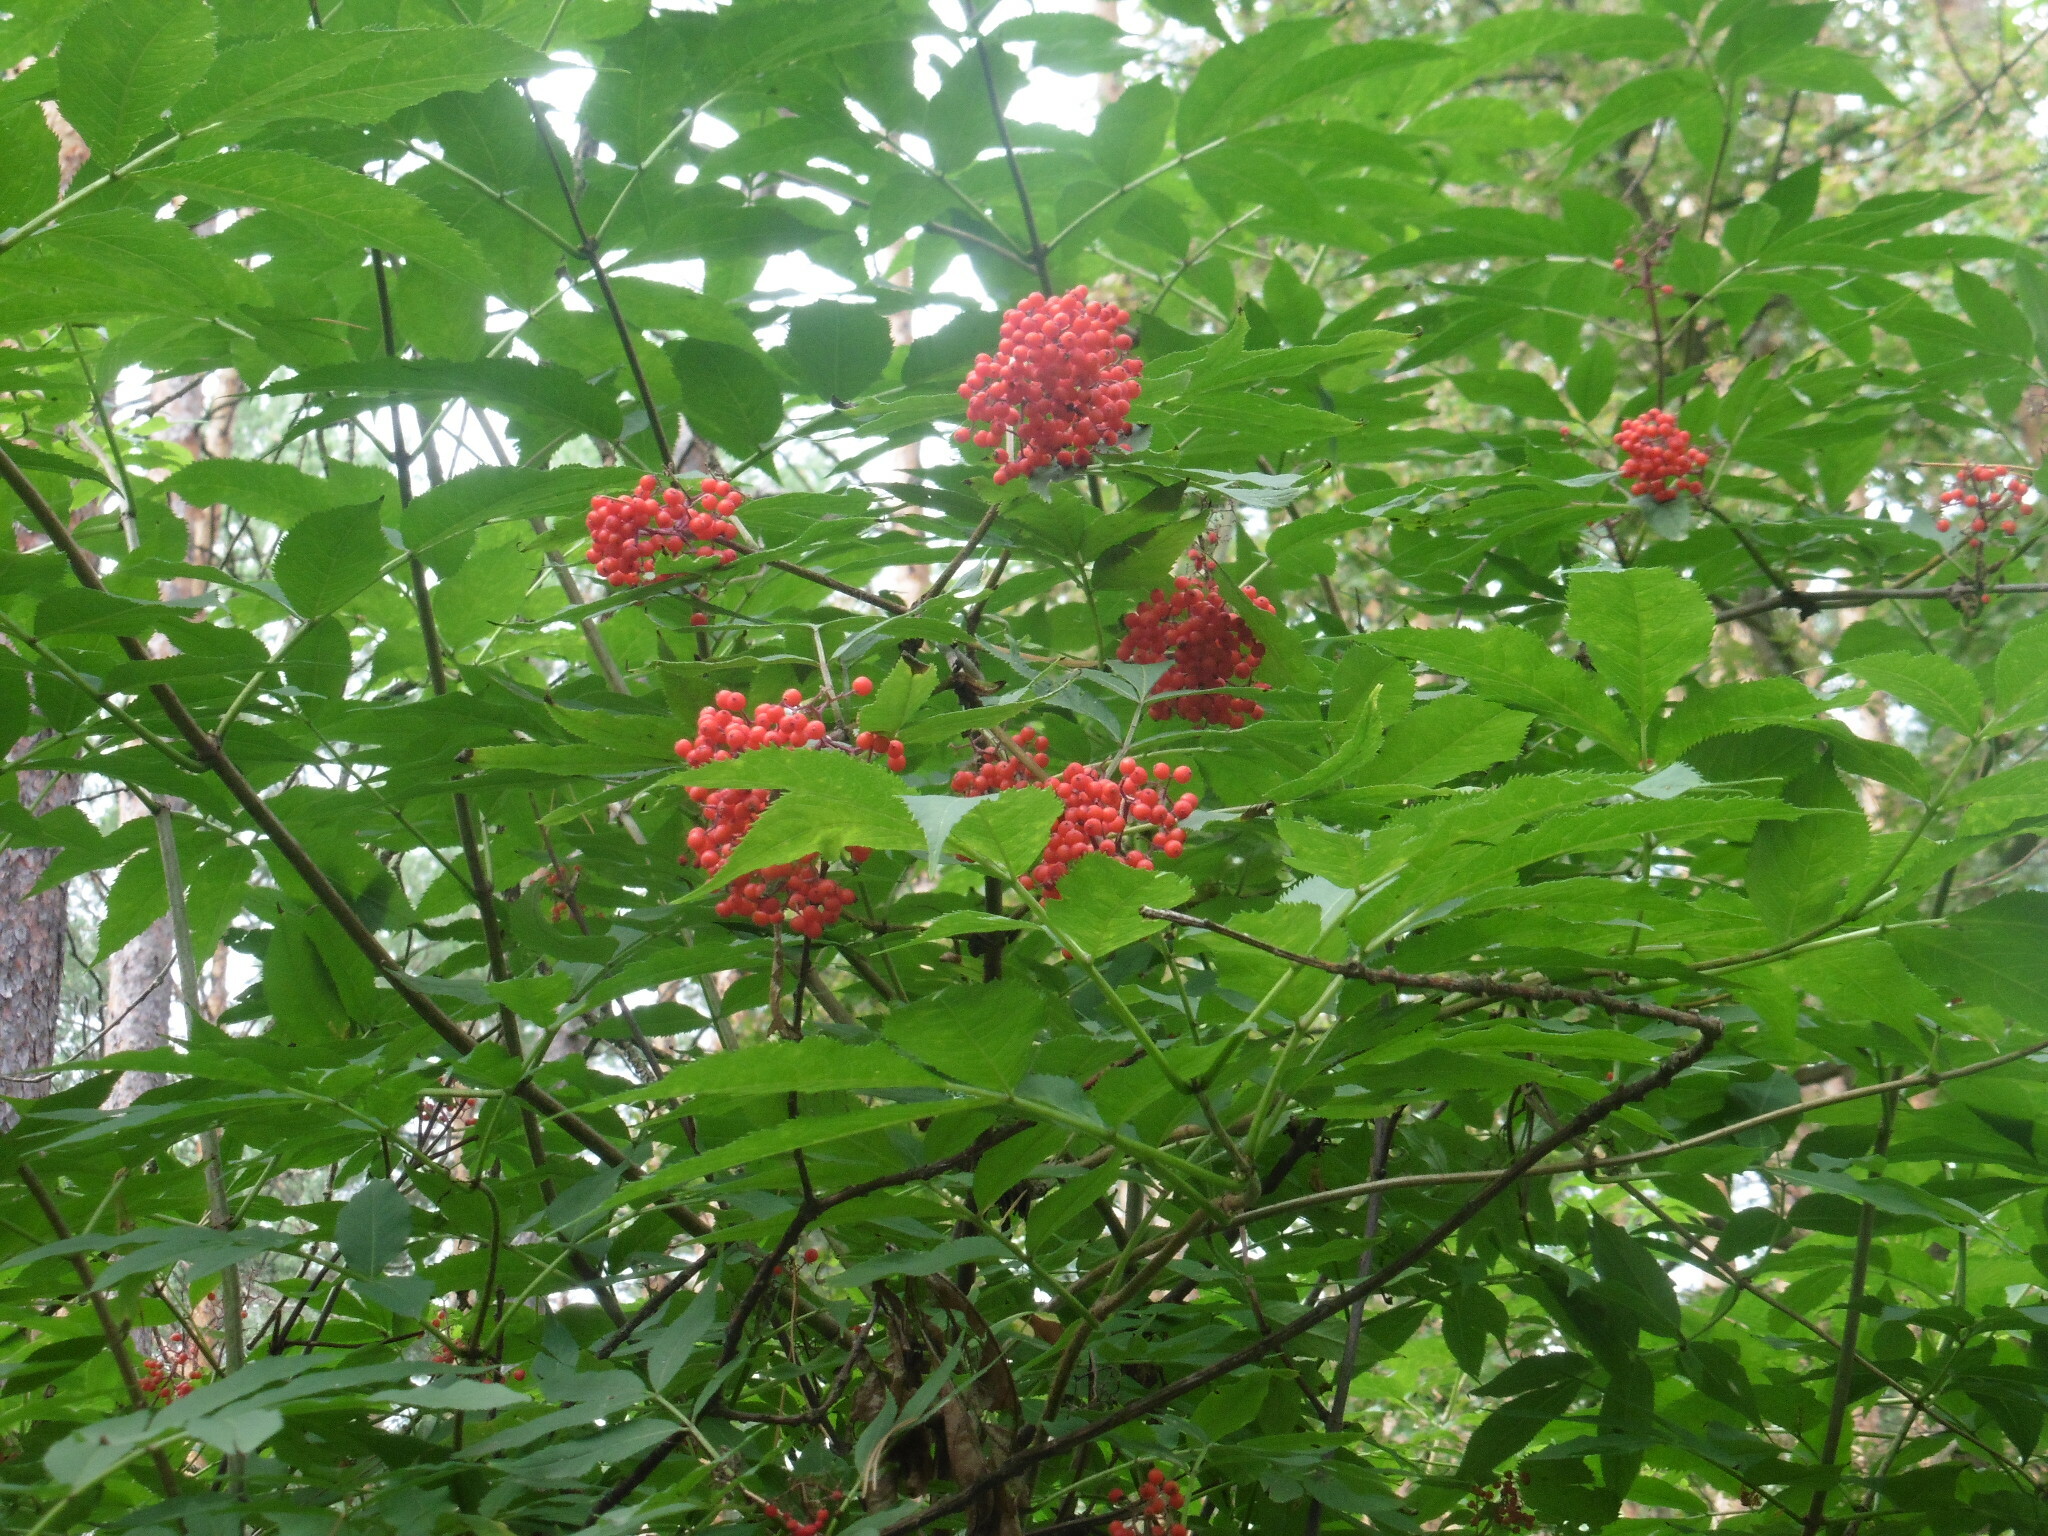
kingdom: Plantae
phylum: Tracheophyta
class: Magnoliopsida
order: Dipsacales
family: Viburnaceae
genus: Sambucus
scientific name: Sambucus racemosa
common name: Red-berried elder
